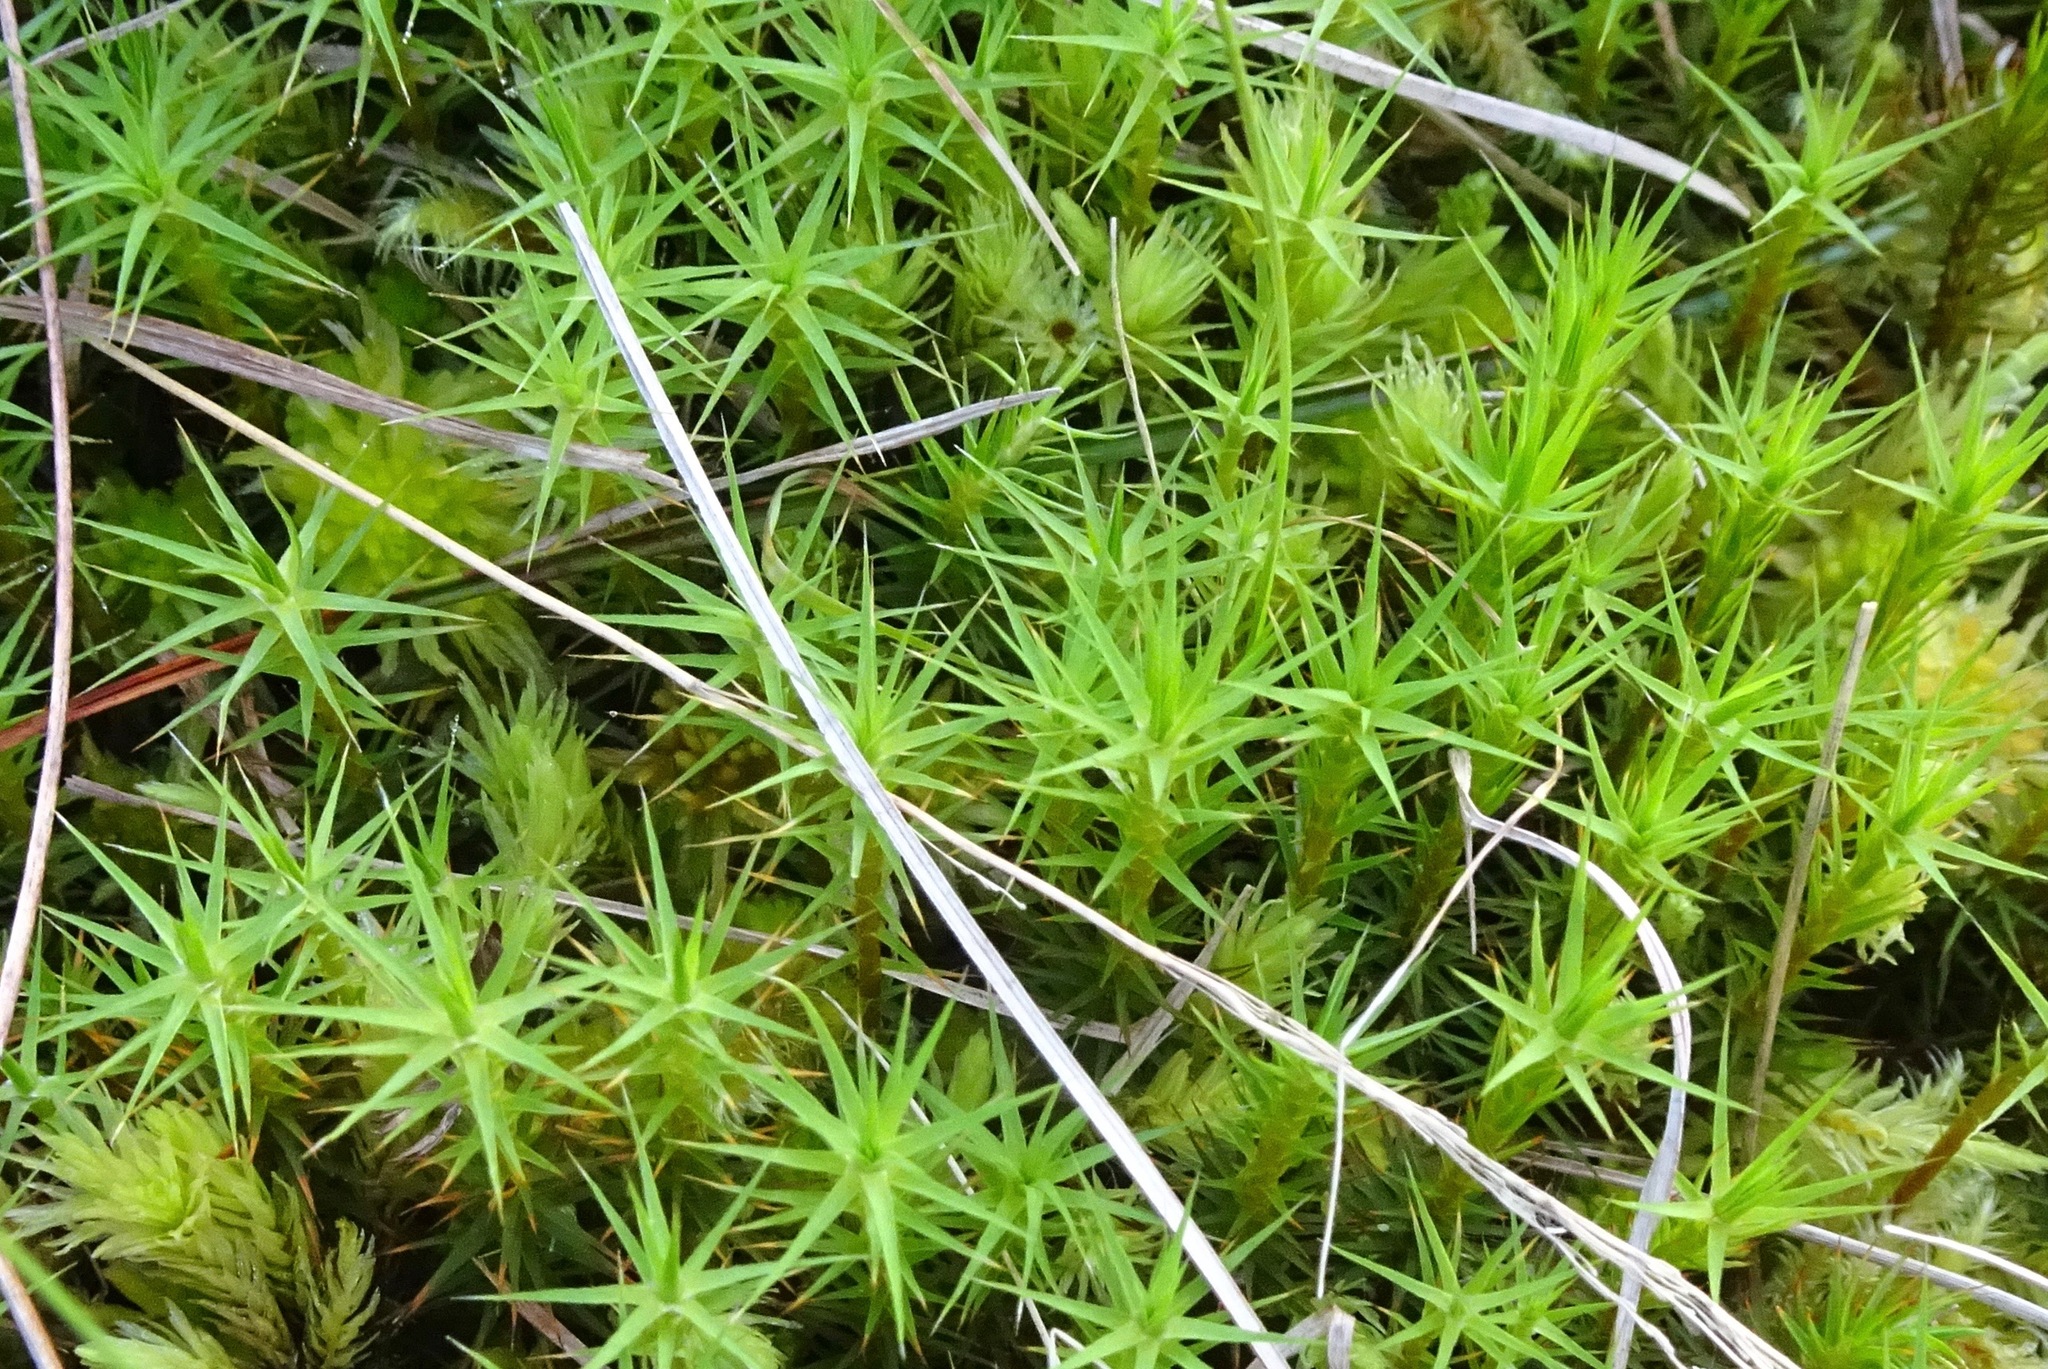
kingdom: Plantae
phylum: Bryophyta
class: Polytrichopsida
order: Polytrichales
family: Polytrichaceae
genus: Polytrichum
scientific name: Polytrichum commune
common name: Common haircap
